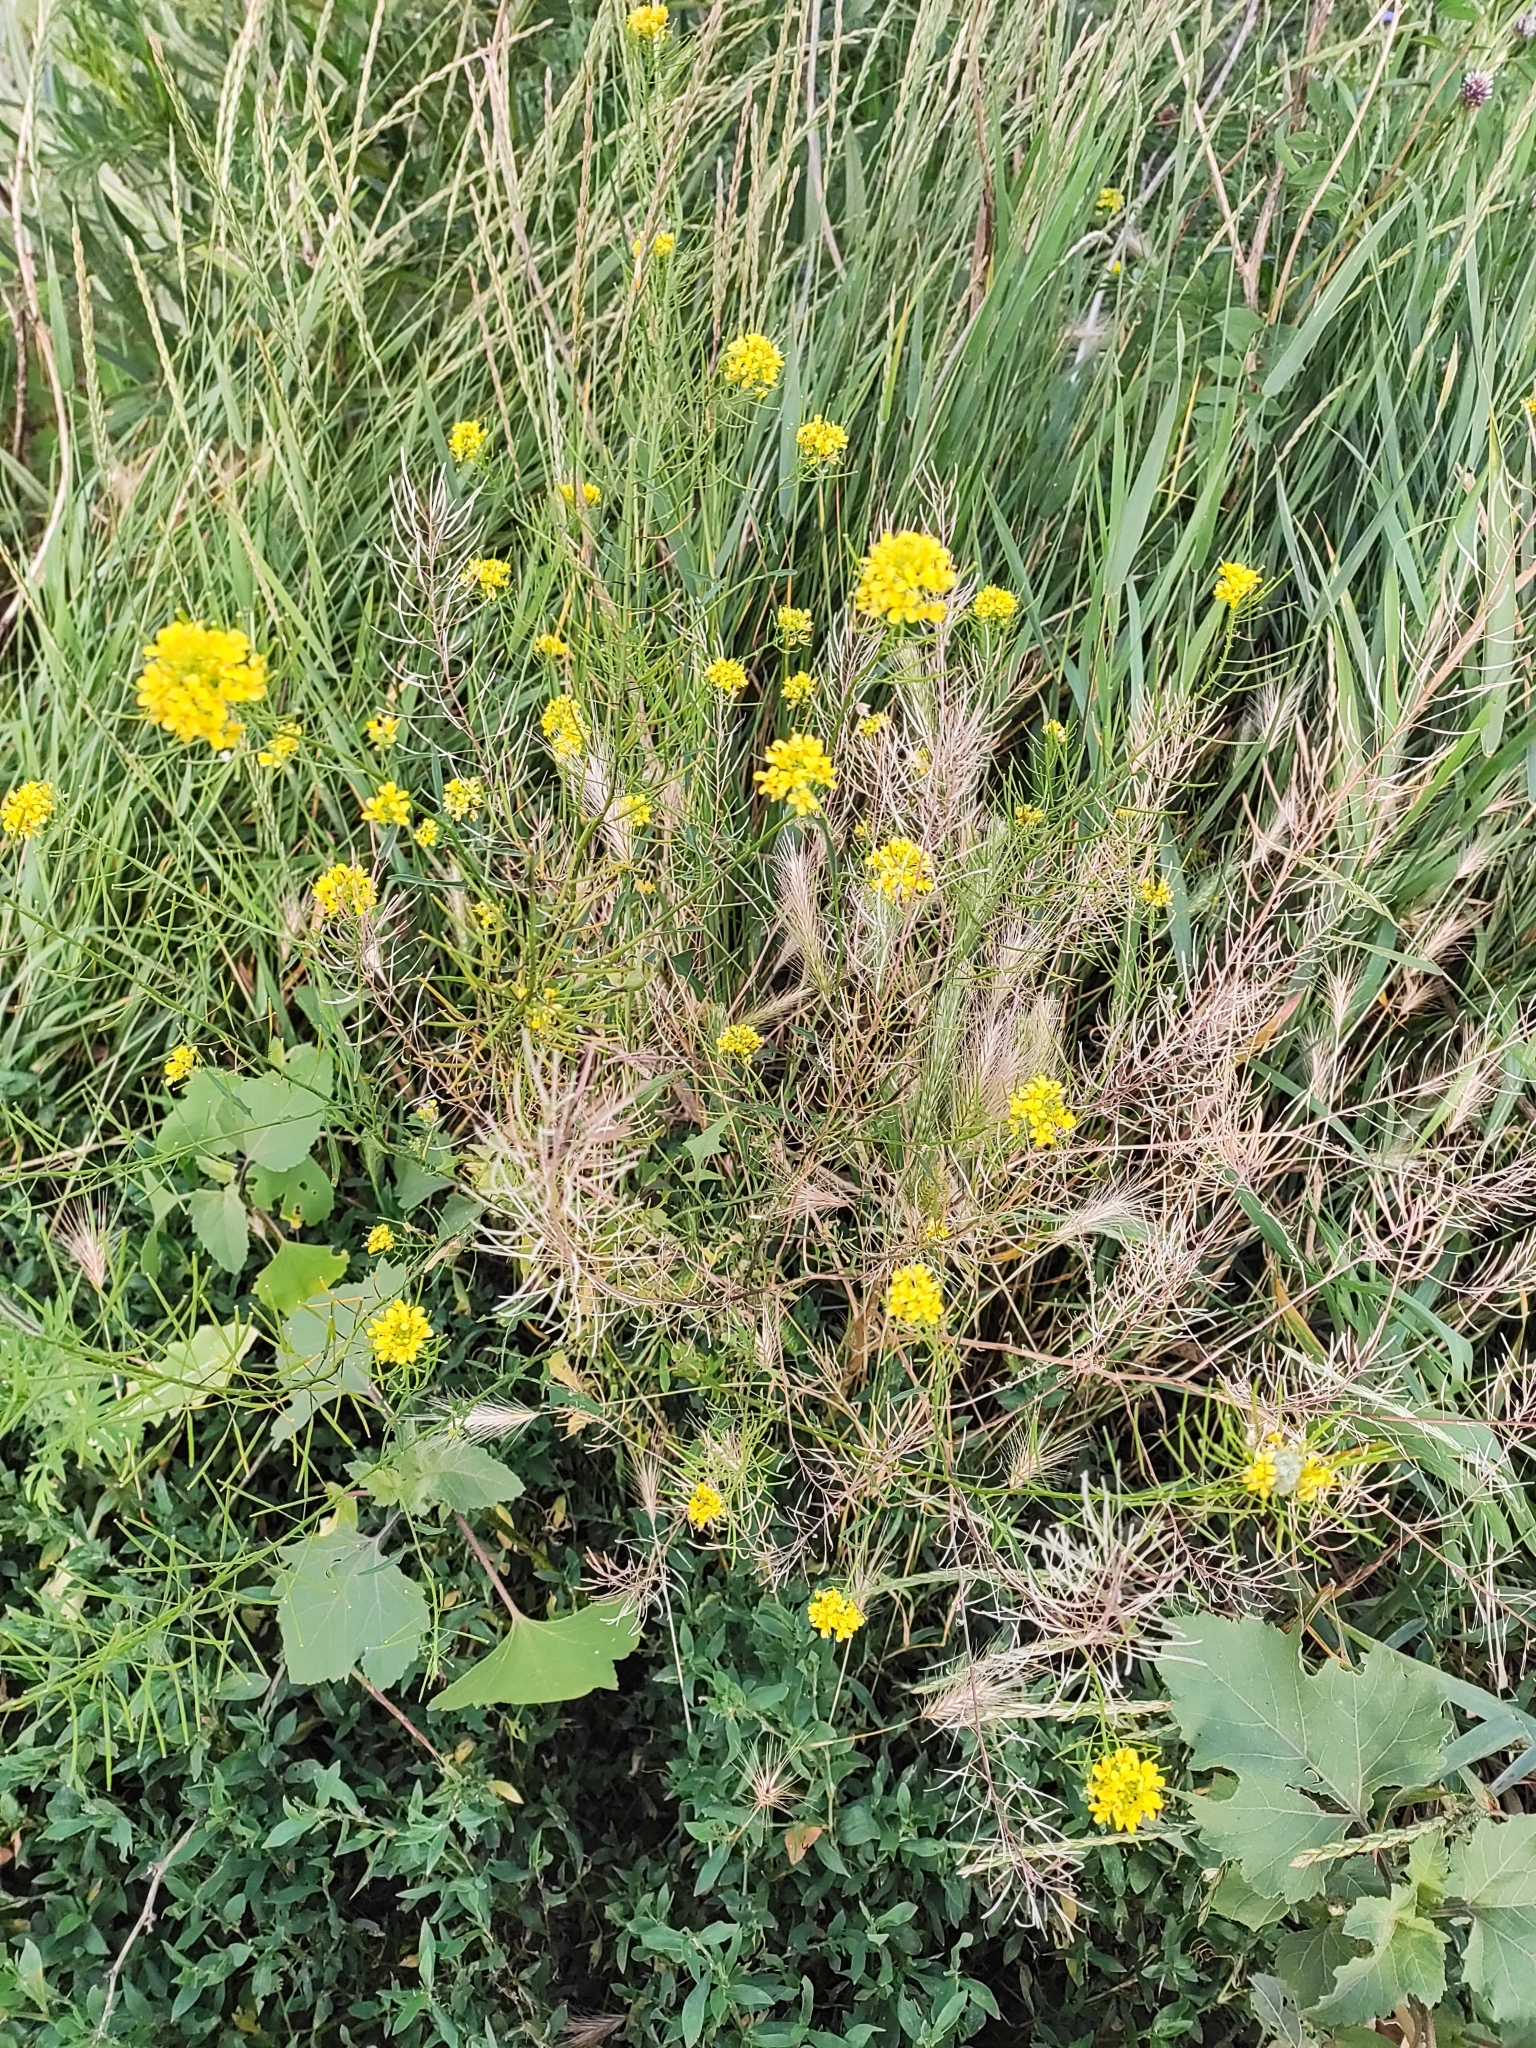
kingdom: Plantae
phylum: Tracheophyta
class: Magnoliopsida
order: Brassicales
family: Brassicaceae
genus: Sisymbrium
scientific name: Sisymbrium loeselii
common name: False london-rocket
